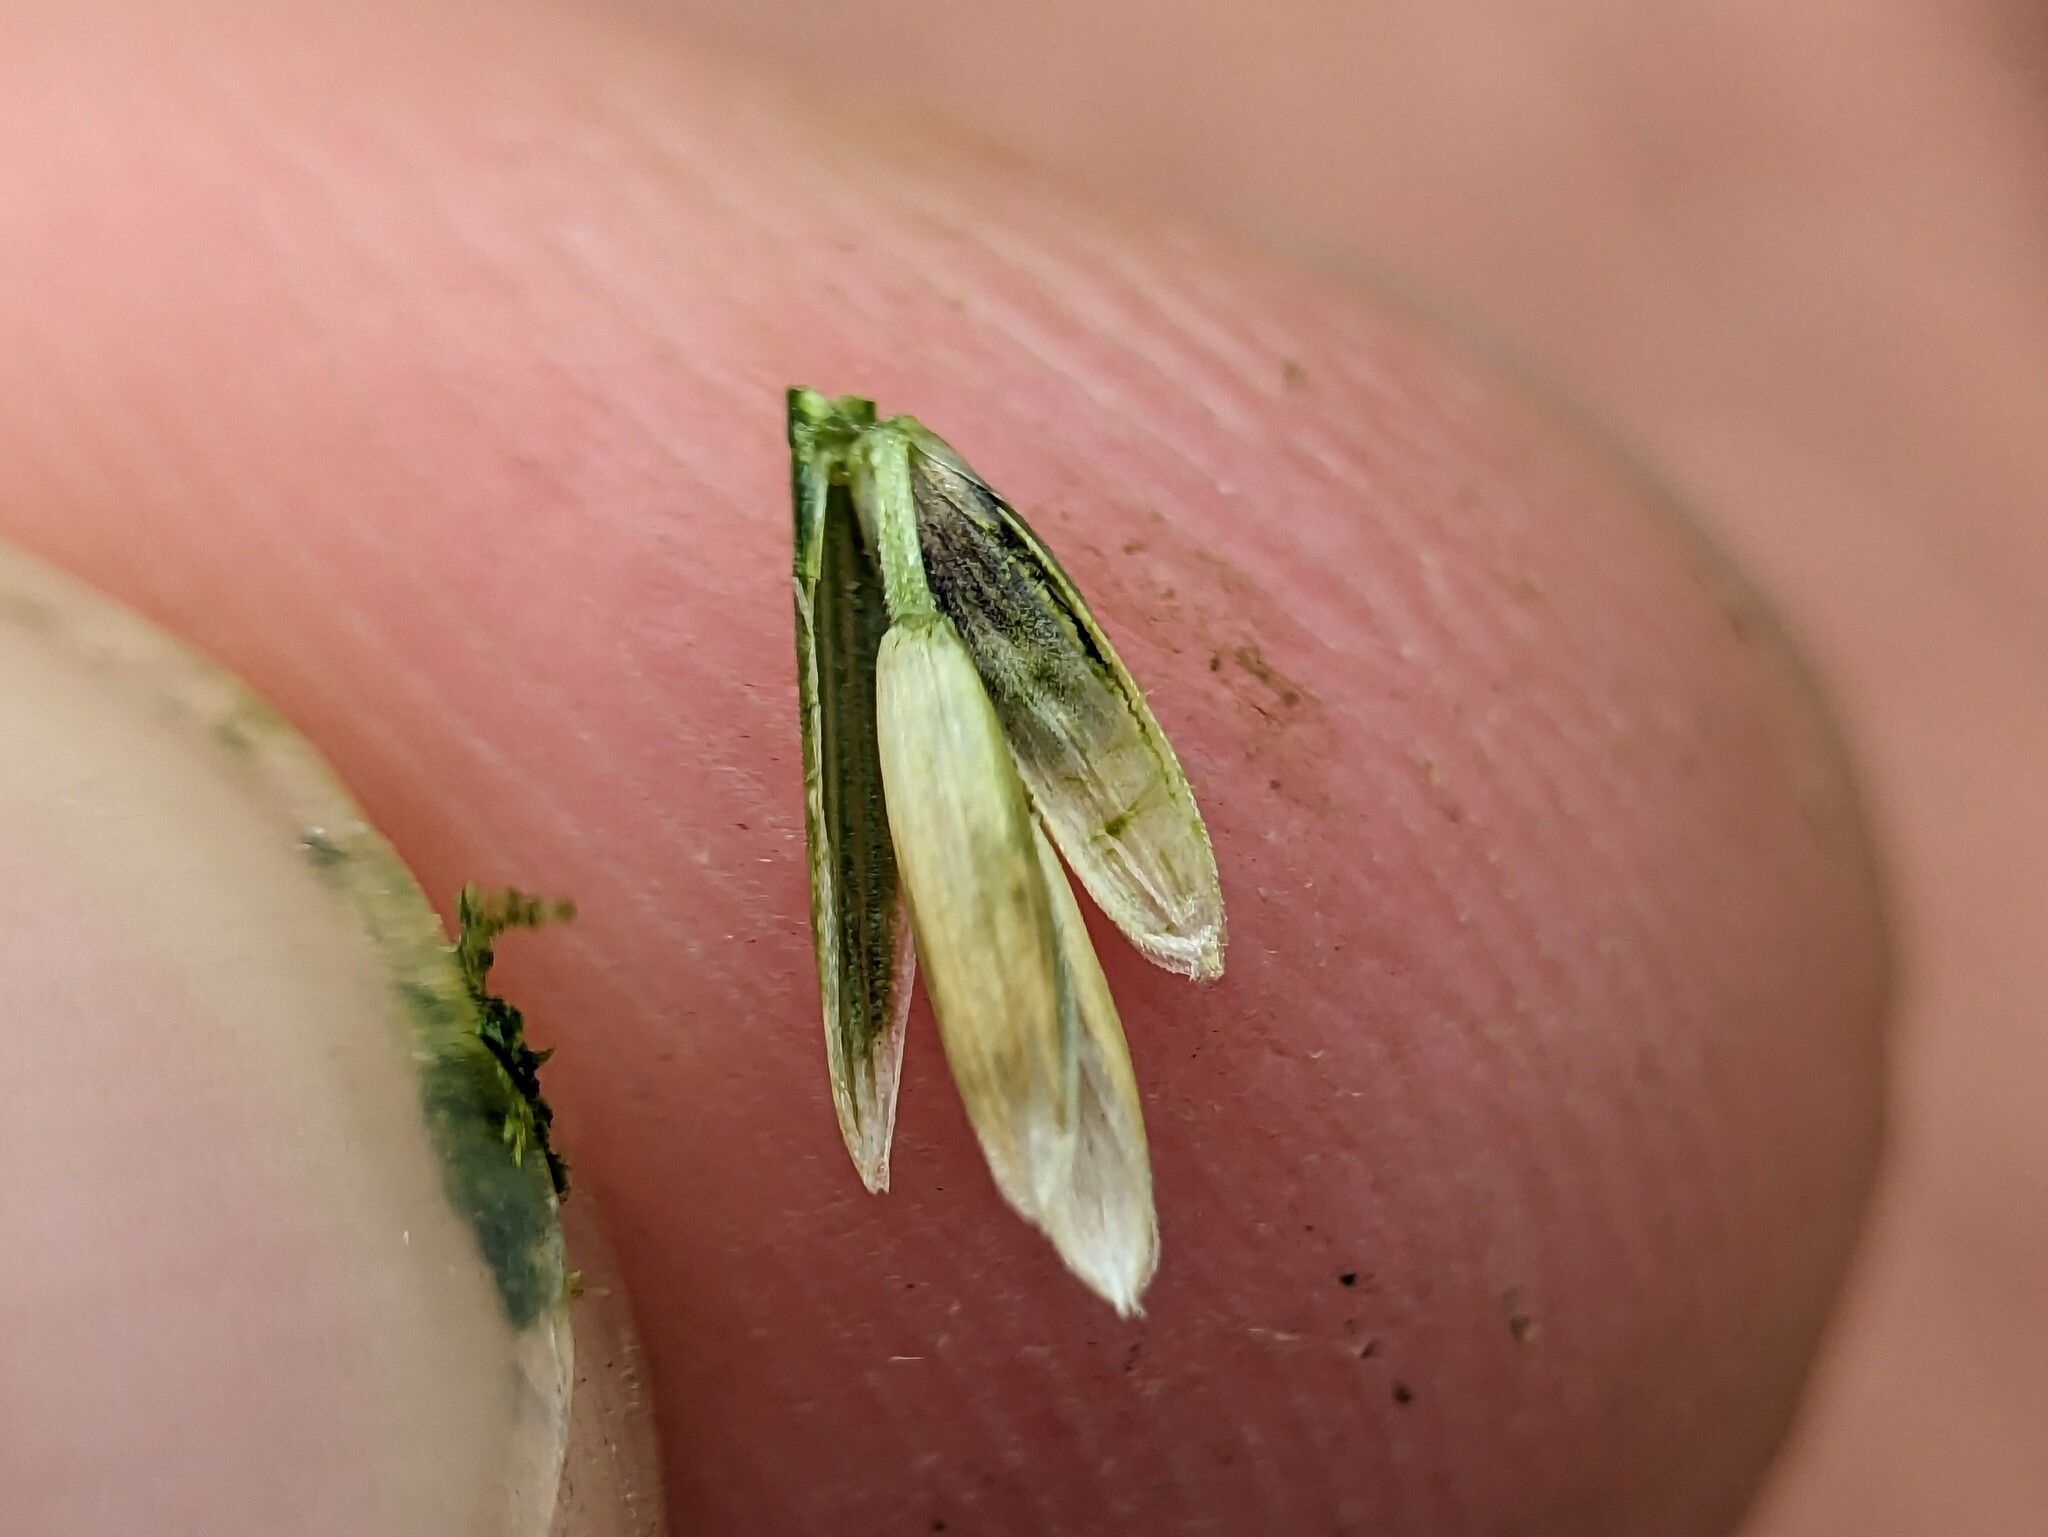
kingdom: Plantae
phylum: Tracheophyta
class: Liliopsida
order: Poales
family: Poaceae
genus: Lolium
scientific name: Lolium perenne
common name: Perennial ryegrass
